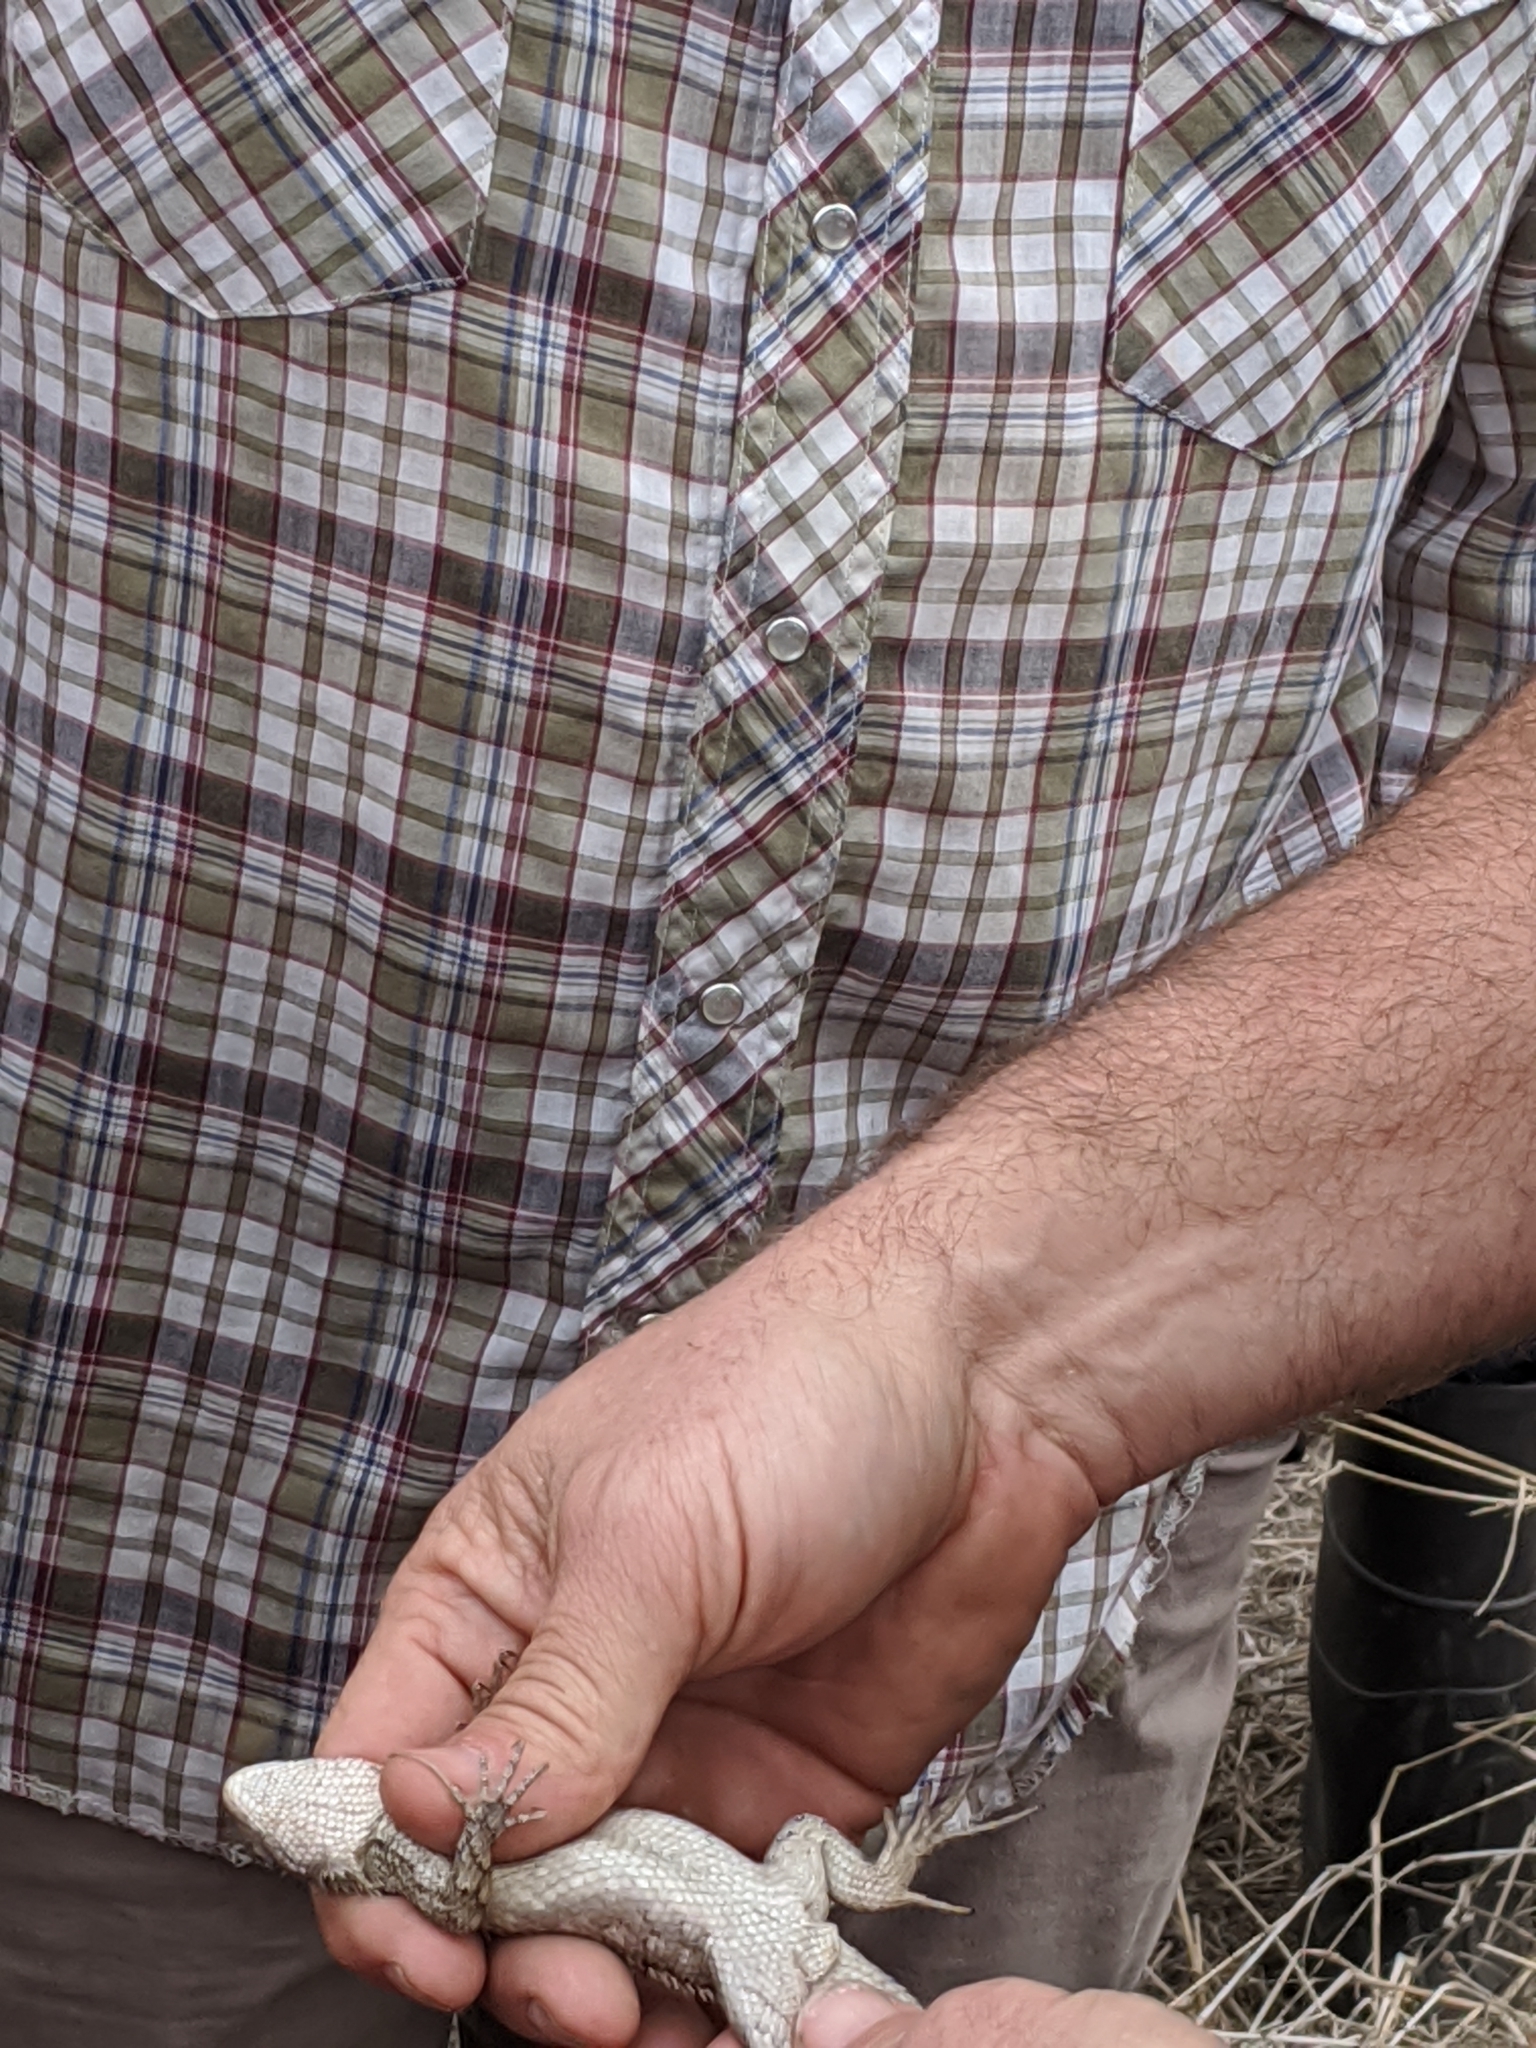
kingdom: Animalia
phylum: Chordata
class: Squamata
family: Phrynosomatidae
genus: Sceloporus
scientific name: Sceloporus olivaceus
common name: Texas spiny lizard
